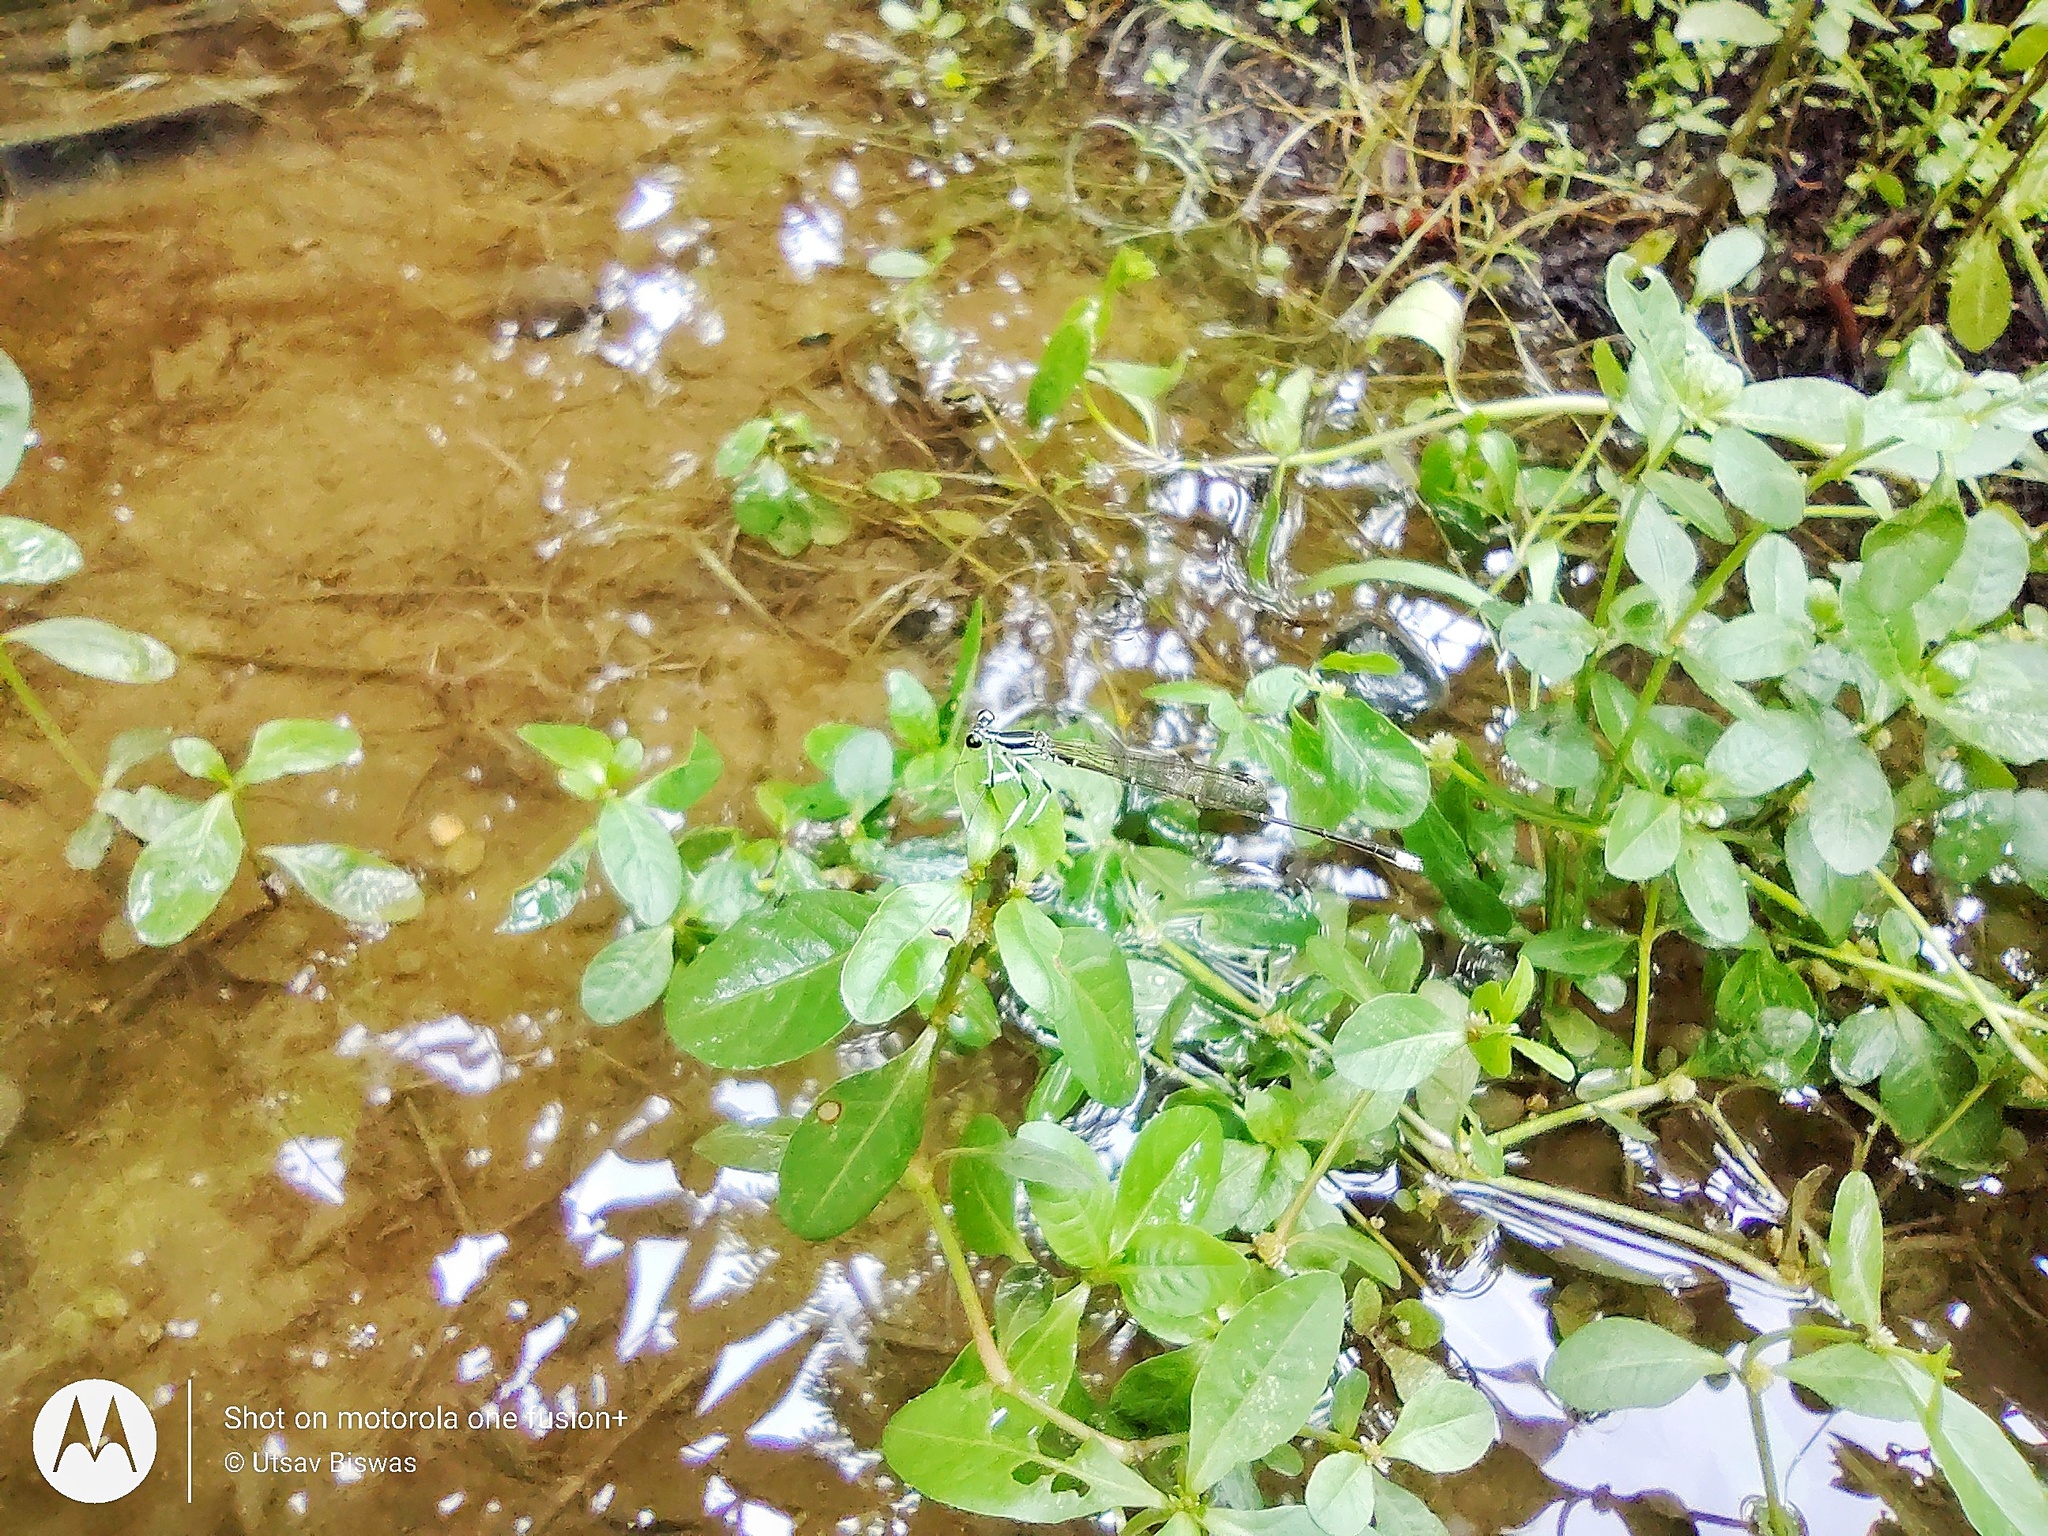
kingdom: Animalia
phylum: Arthropoda
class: Insecta
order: Odonata
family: Platycnemididae
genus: Pseudocopera
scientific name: Pseudocopera ciliata
